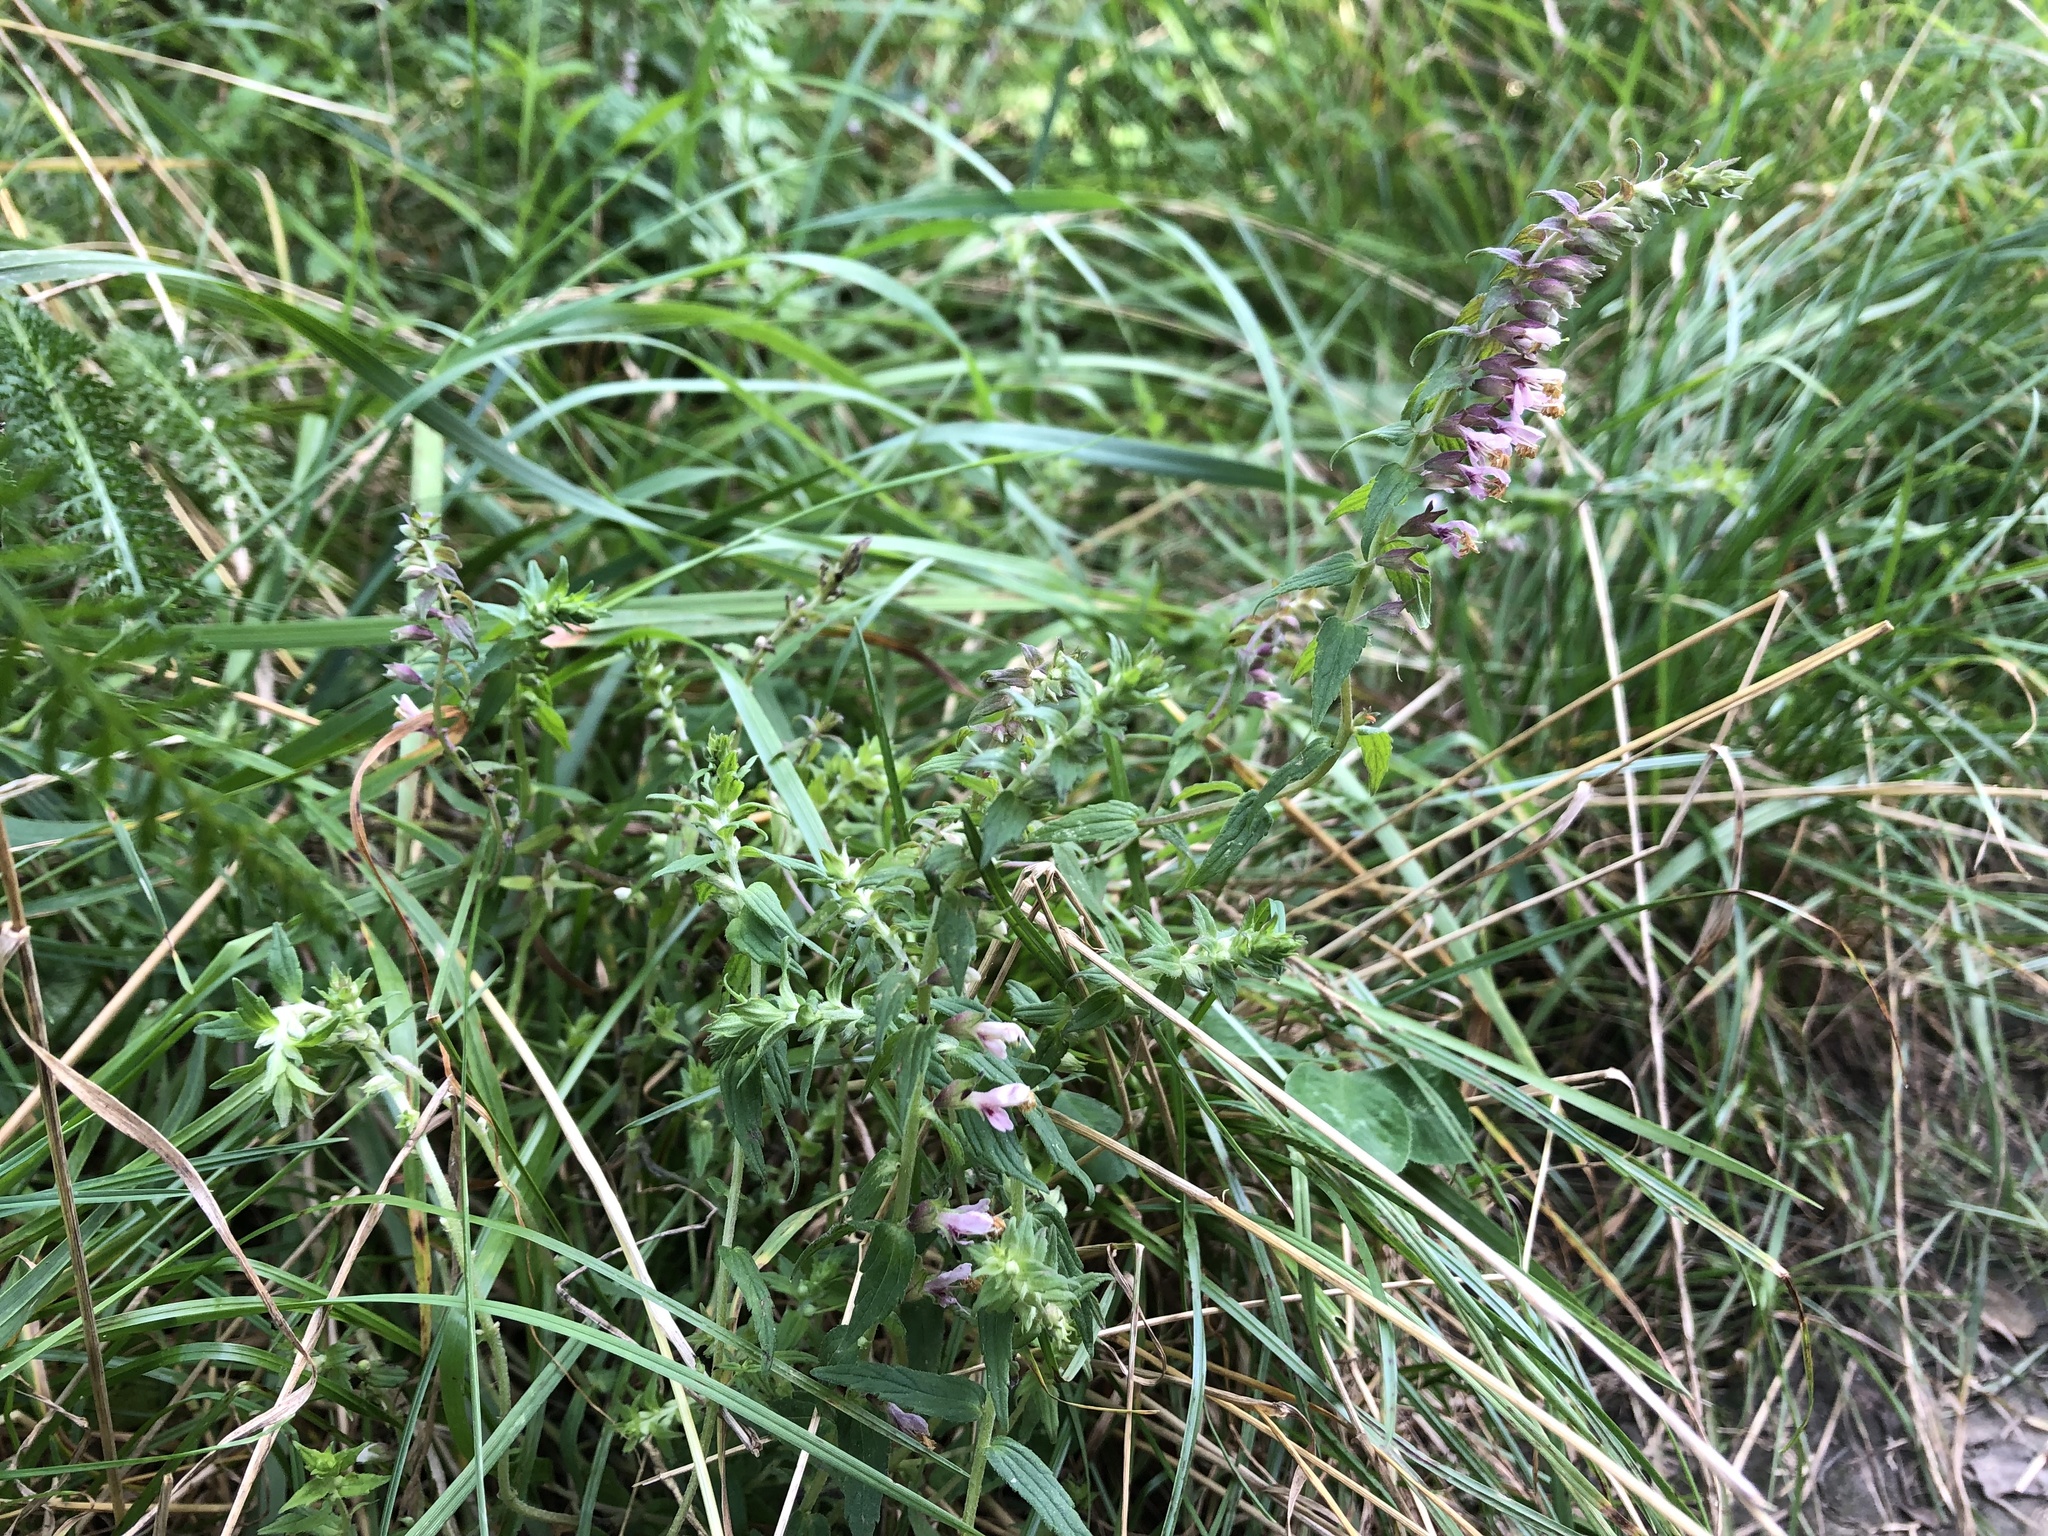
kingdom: Plantae
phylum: Tracheophyta
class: Magnoliopsida
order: Lamiales
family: Orobanchaceae
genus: Odontites
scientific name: Odontites vulgaris
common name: Broomrape
